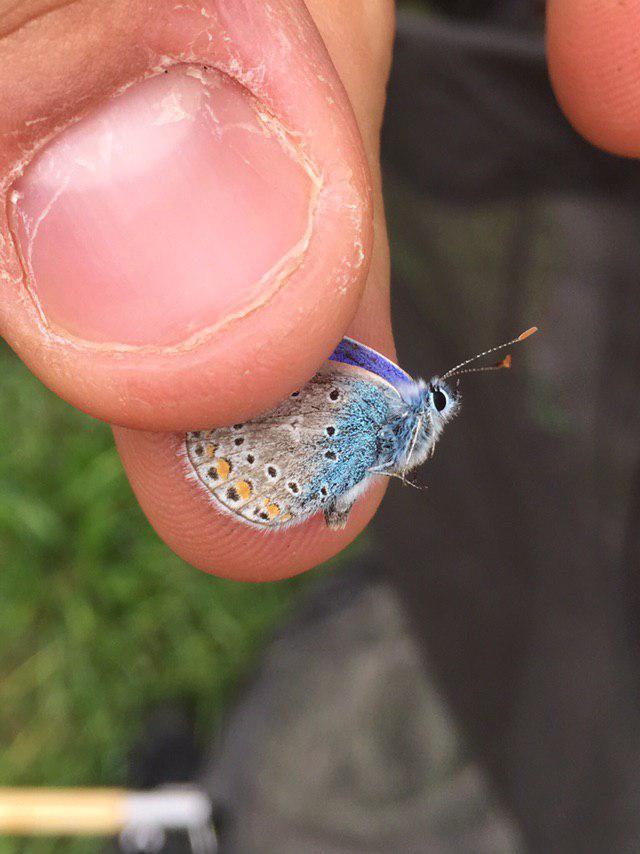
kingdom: Animalia
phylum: Arthropoda
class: Insecta
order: Lepidoptera
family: Lycaenidae
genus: Polyommatus
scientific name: Polyommatus icarus
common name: Common blue
